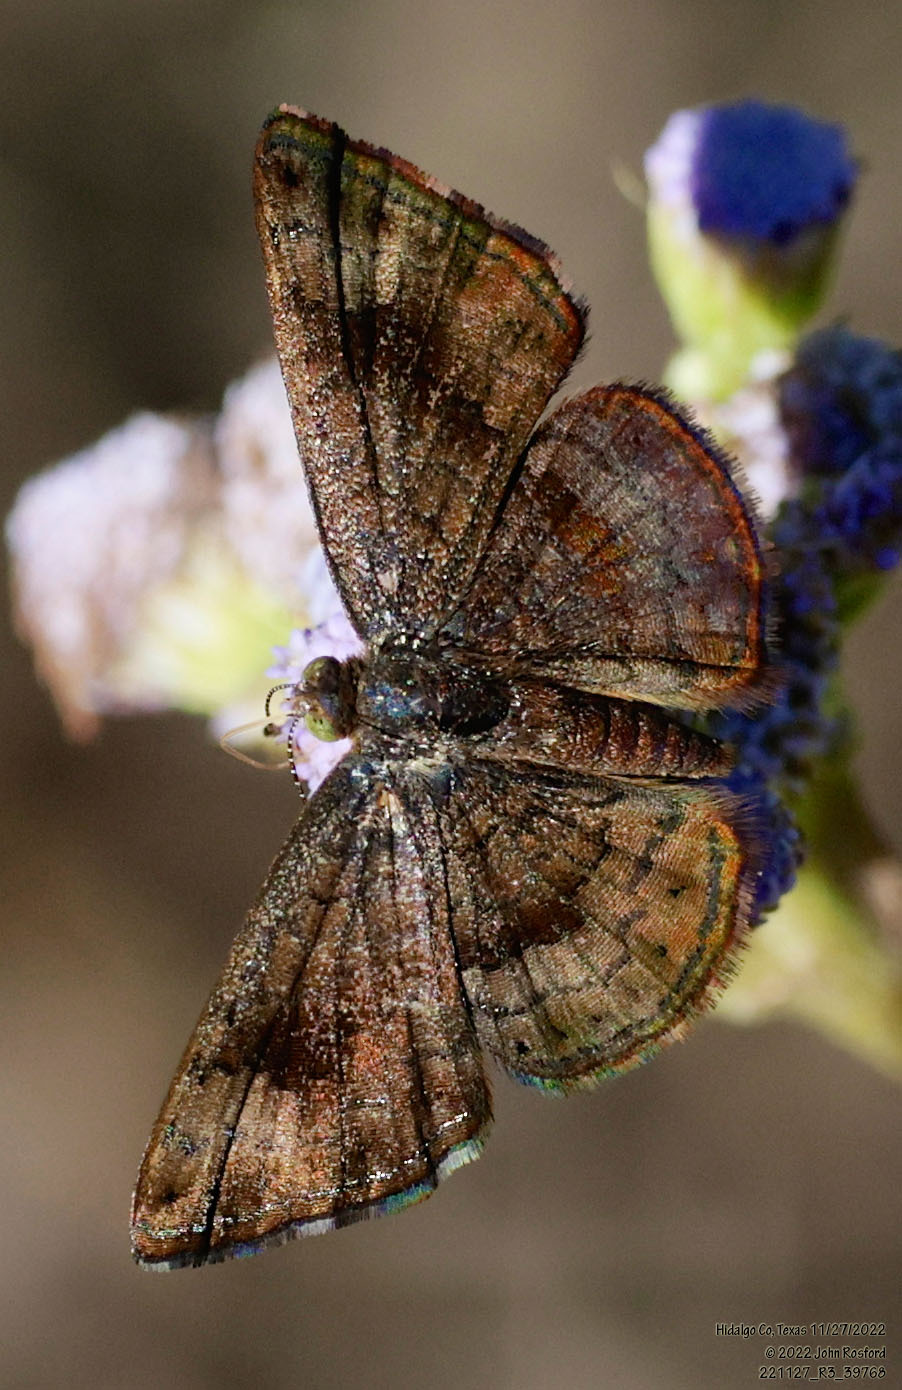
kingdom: Animalia
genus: Calephelis
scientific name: Calephelis nemesis
